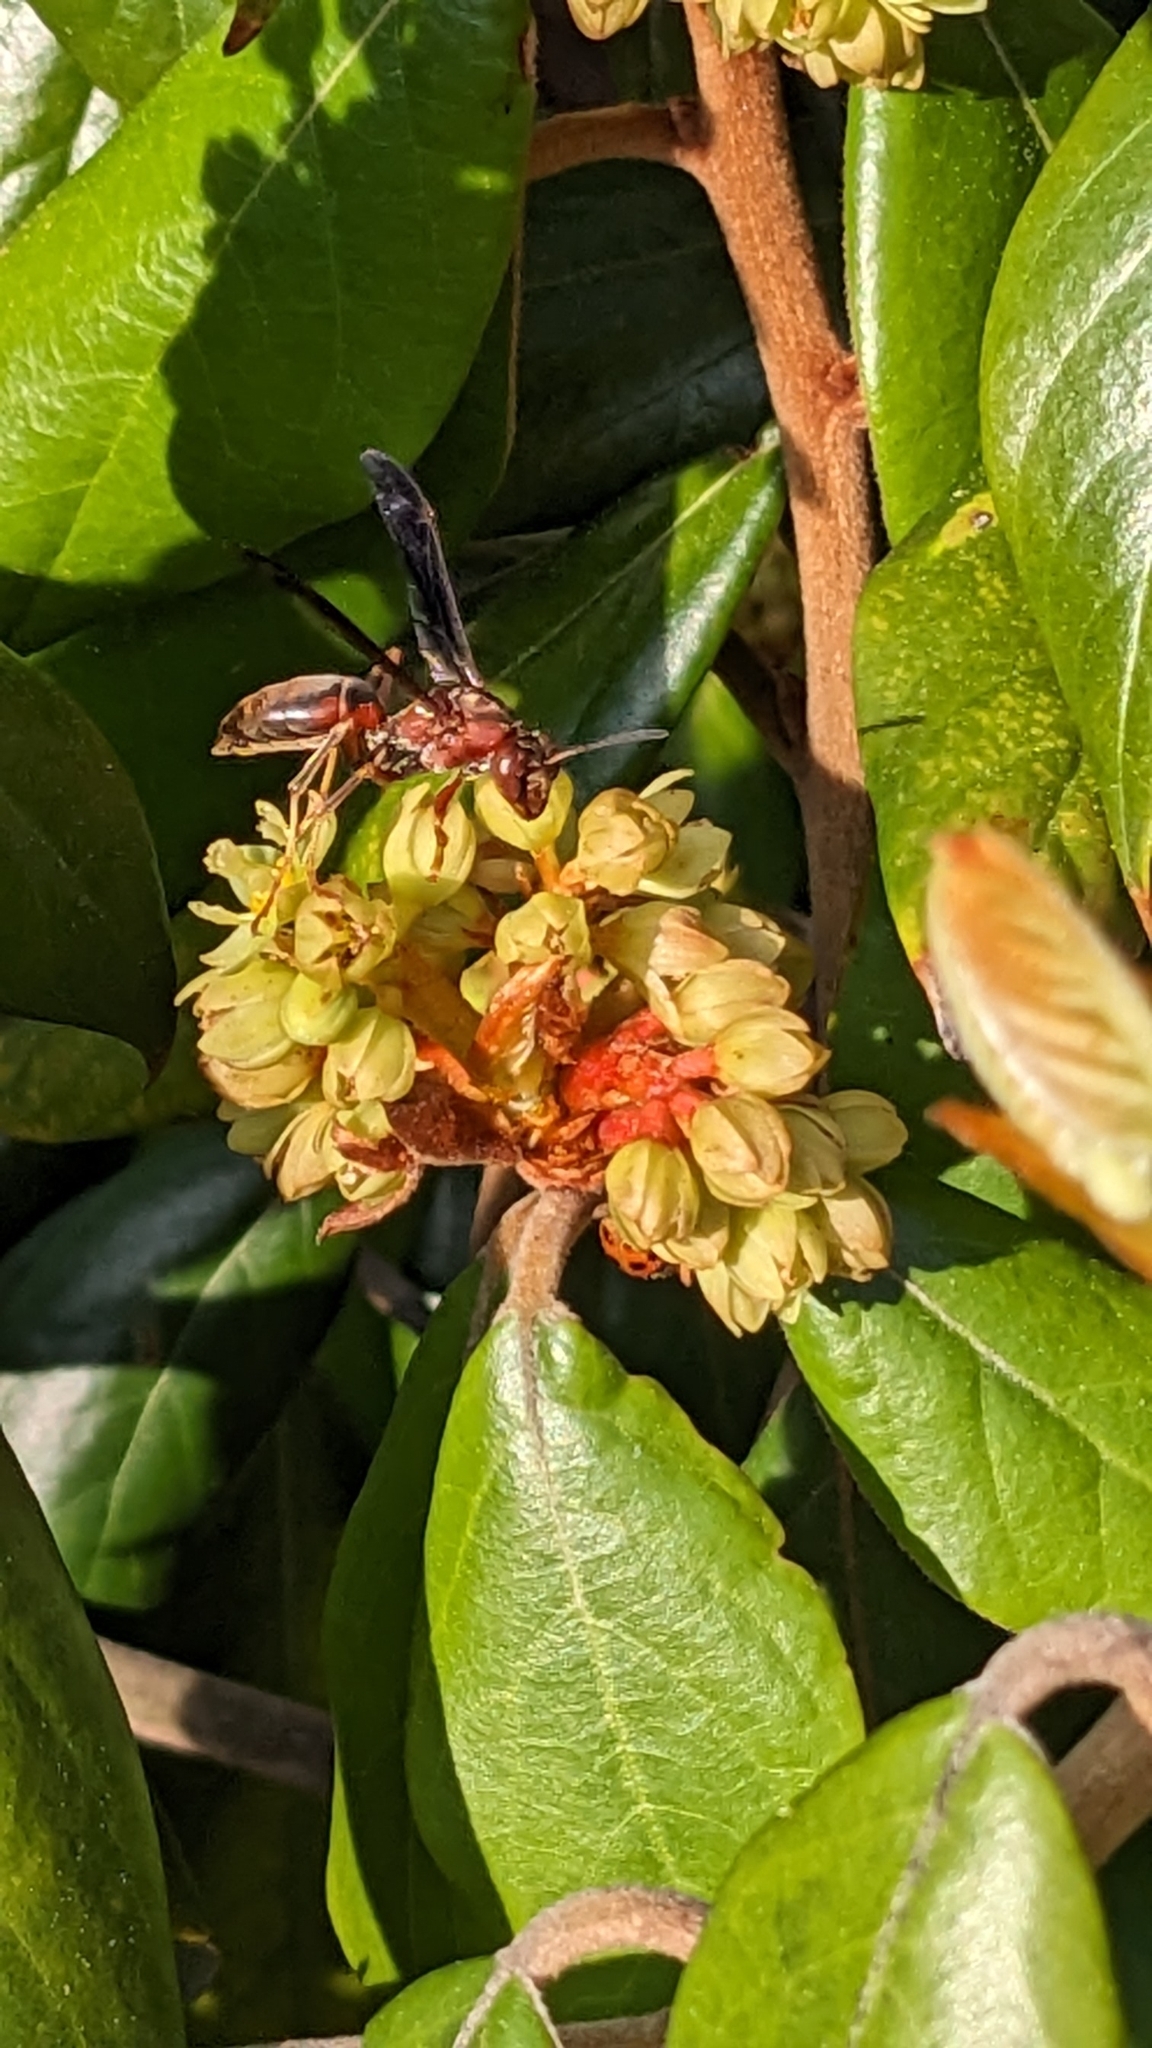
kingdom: Animalia
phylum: Arthropoda
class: Insecta
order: Hymenoptera
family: Eumenidae
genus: Polistes
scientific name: Polistes metricus
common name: Metric paper wasp
